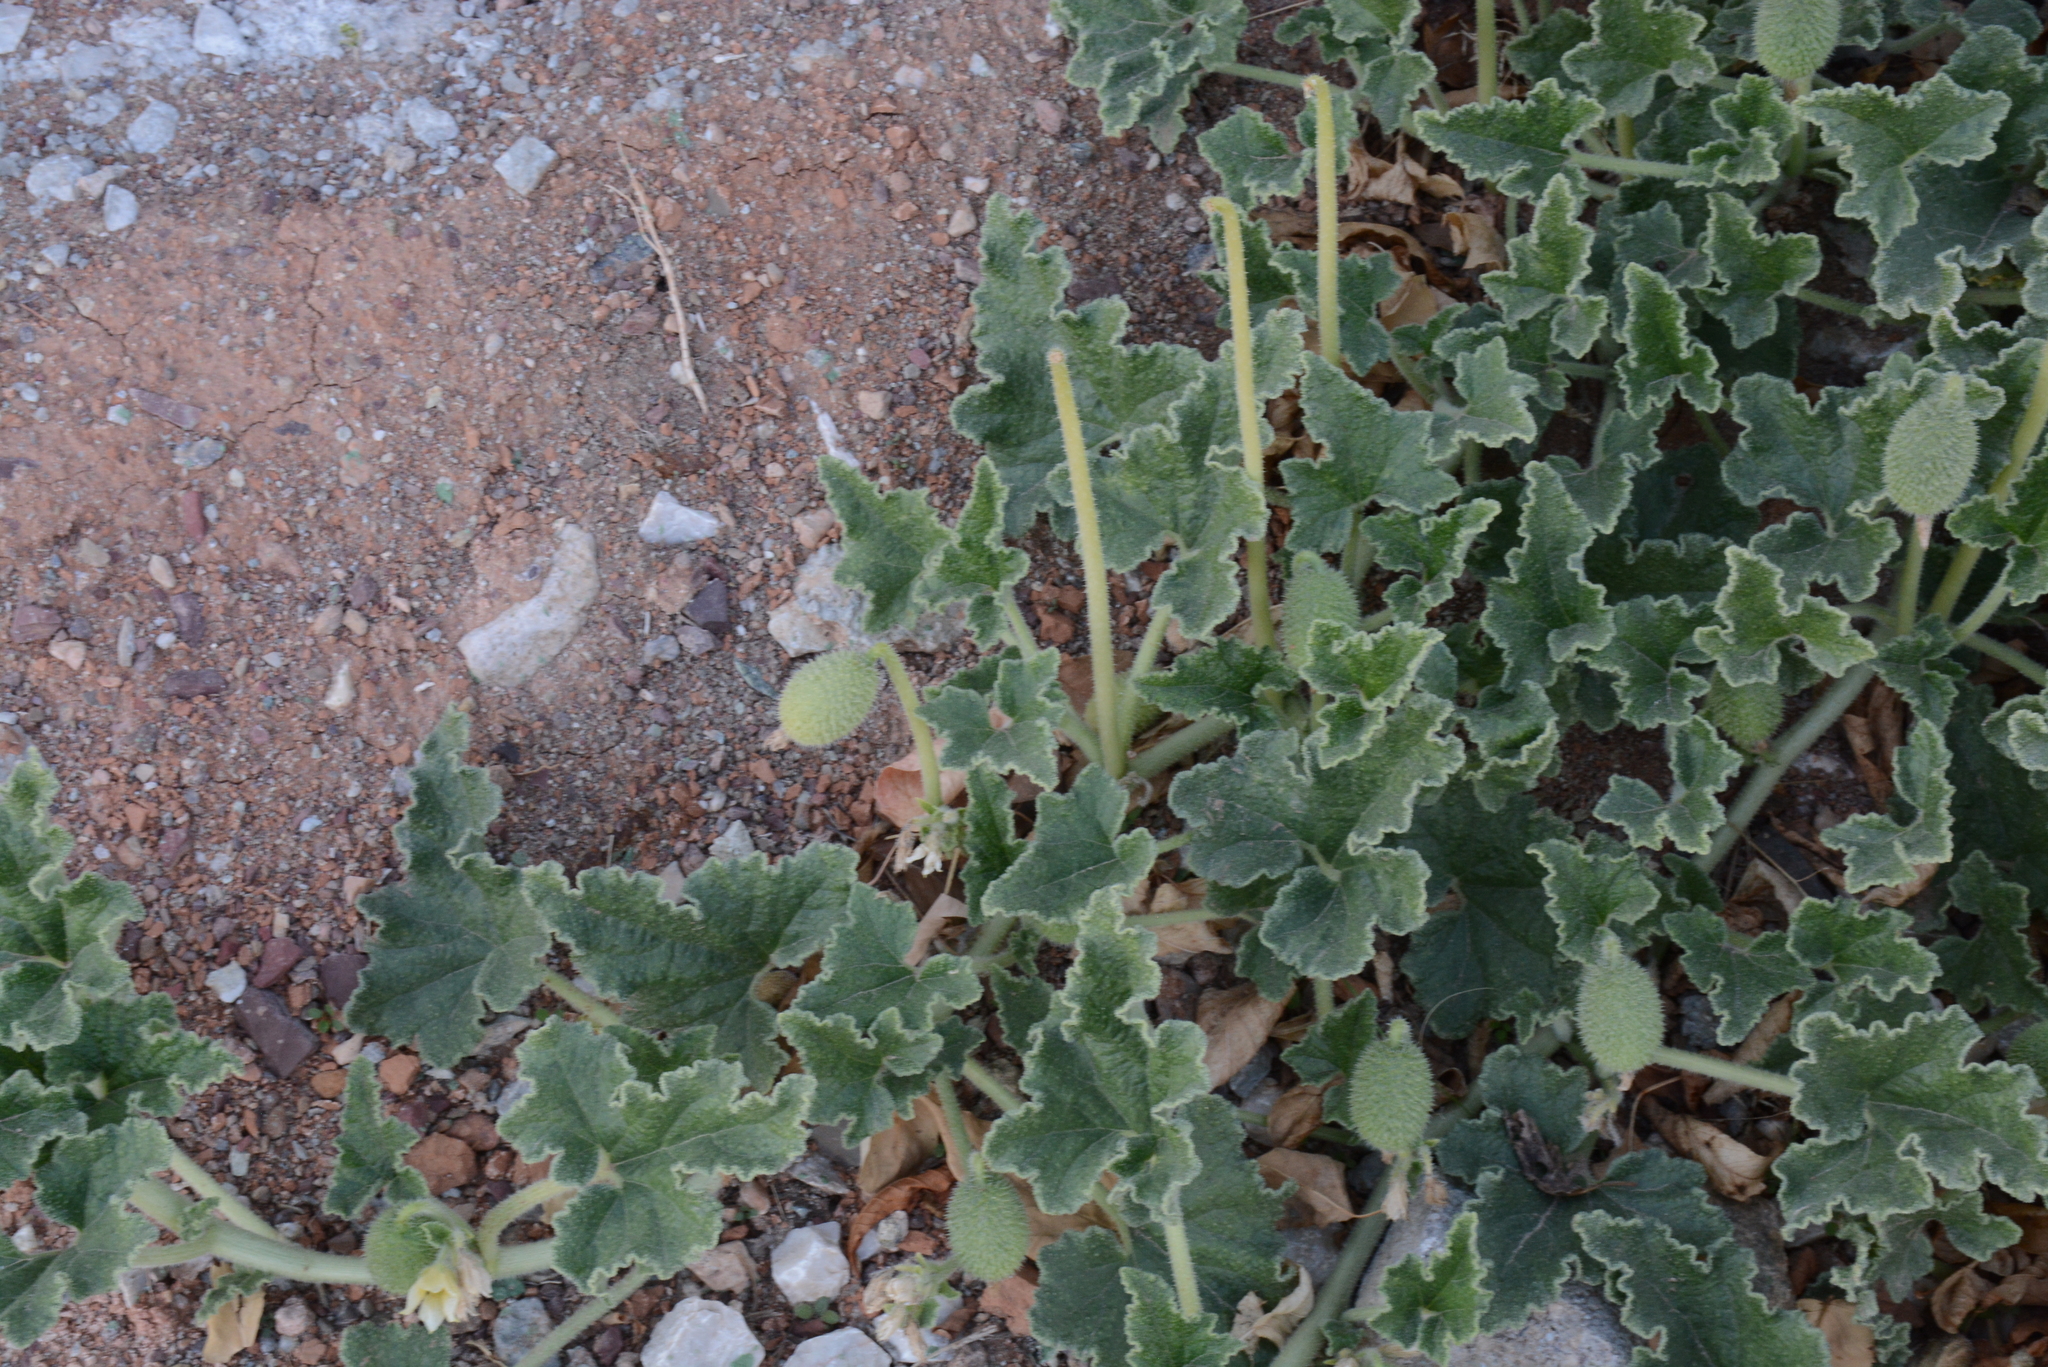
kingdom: Plantae
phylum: Tracheophyta
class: Magnoliopsida
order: Cucurbitales
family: Cucurbitaceae
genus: Ecballium
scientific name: Ecballium elaterium
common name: Squirting cucumber
